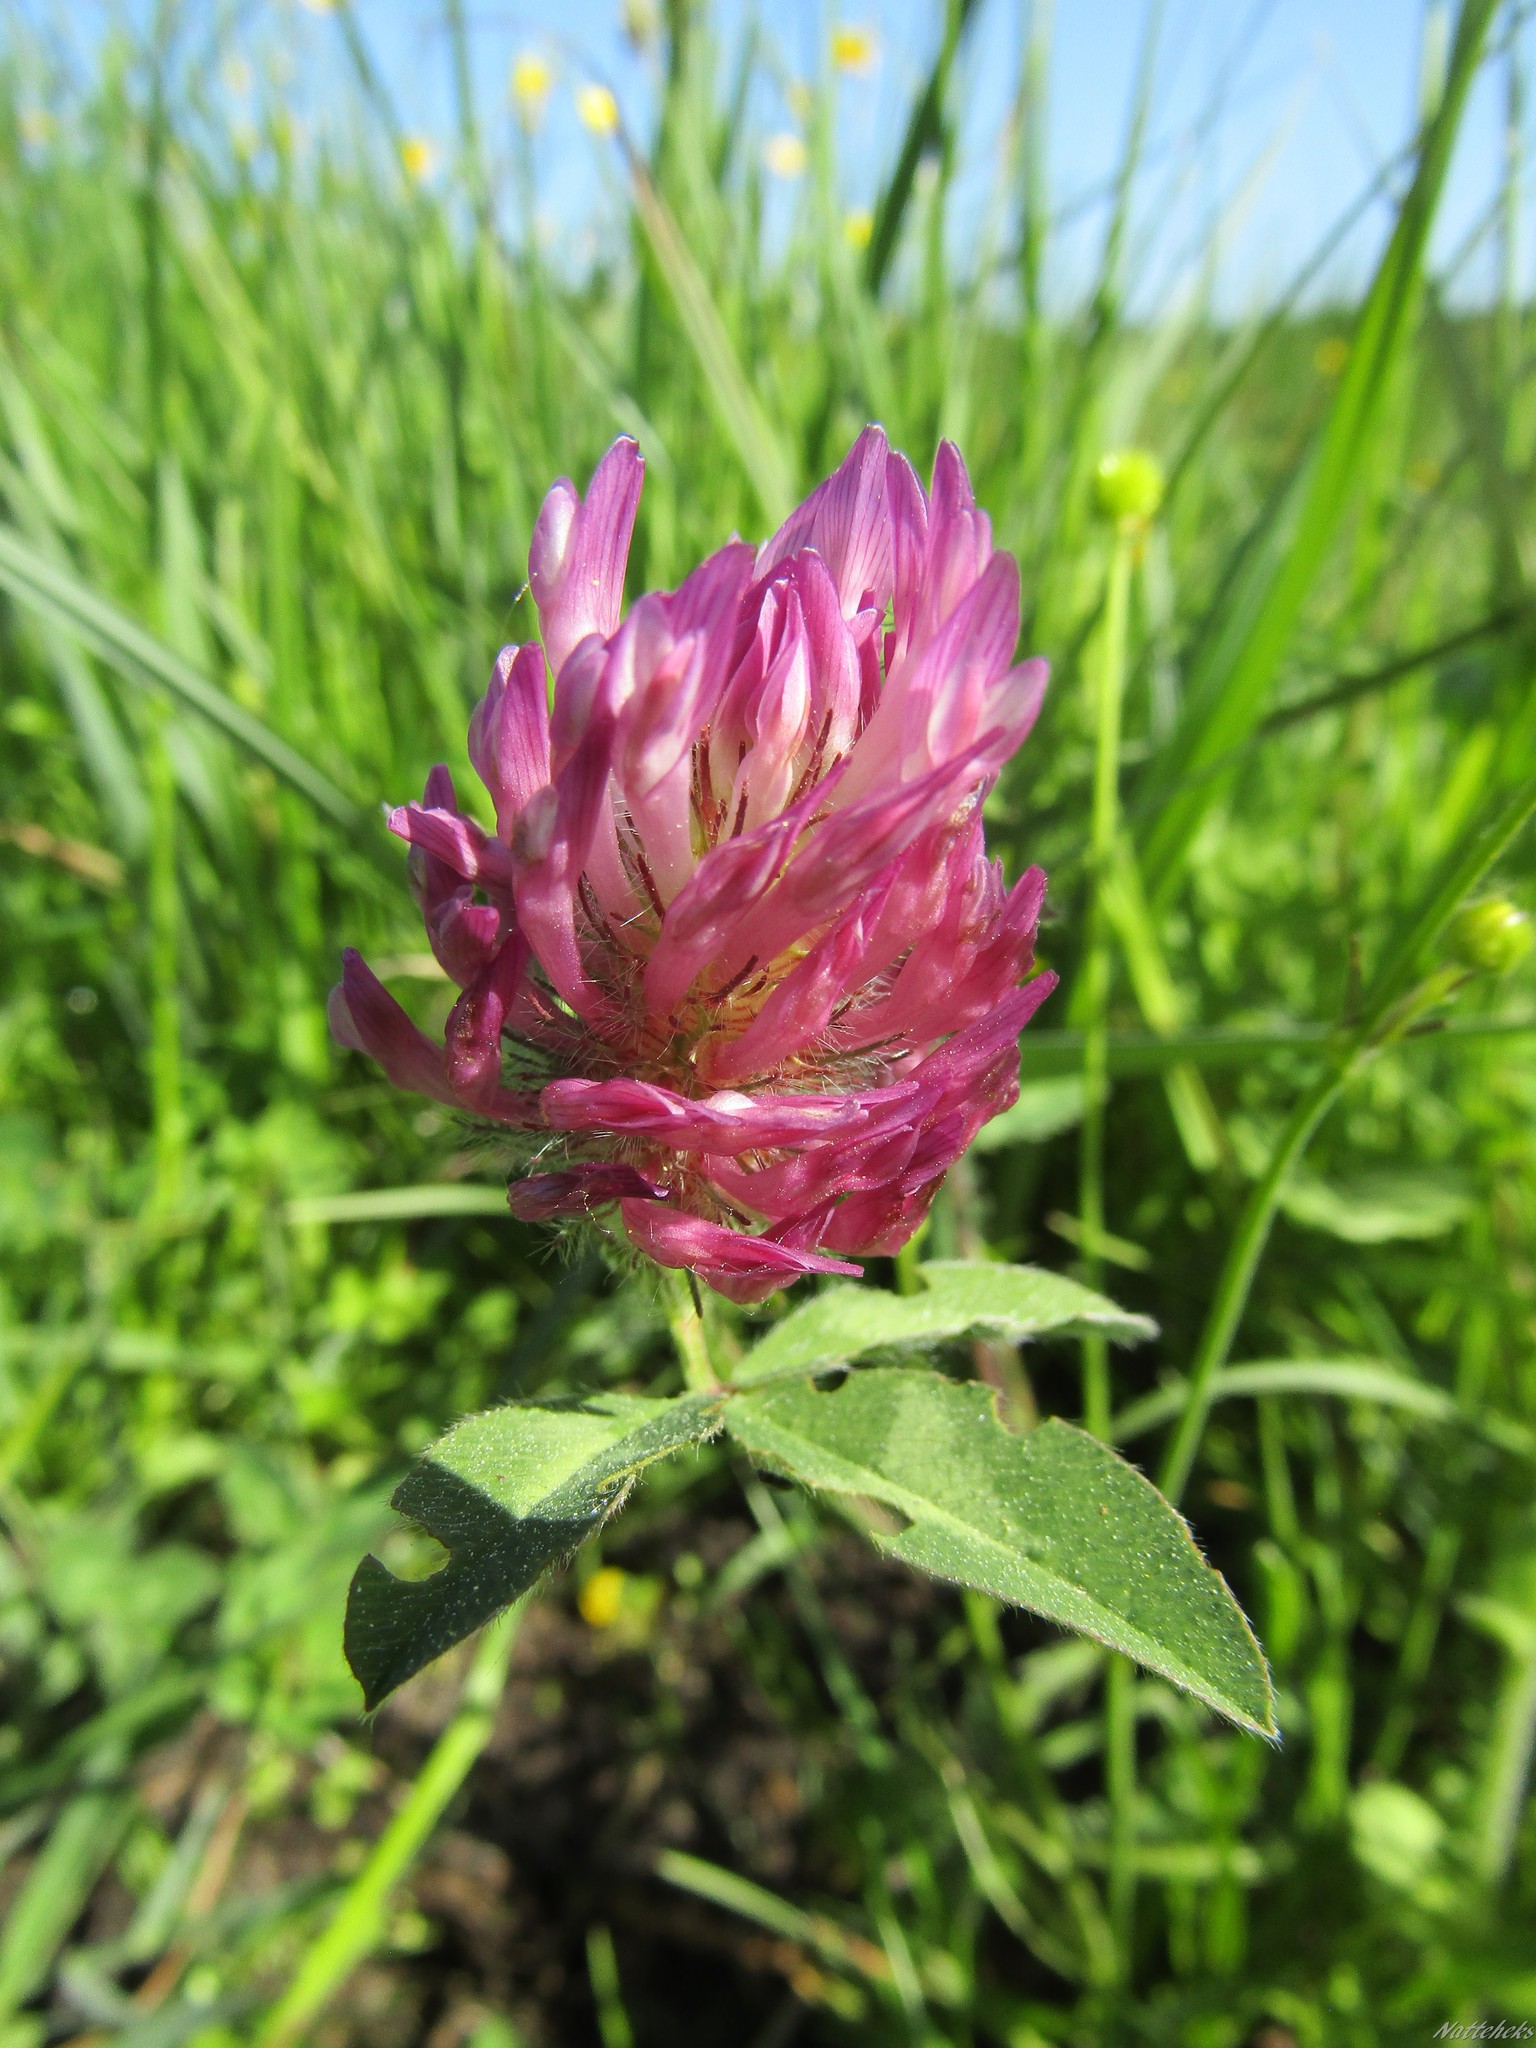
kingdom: Plantae
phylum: Tracheophyta
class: Magnoliopsida
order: Fabales
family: Fabaceae
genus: Trifolium
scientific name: Trifolium pratense
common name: Red clover
